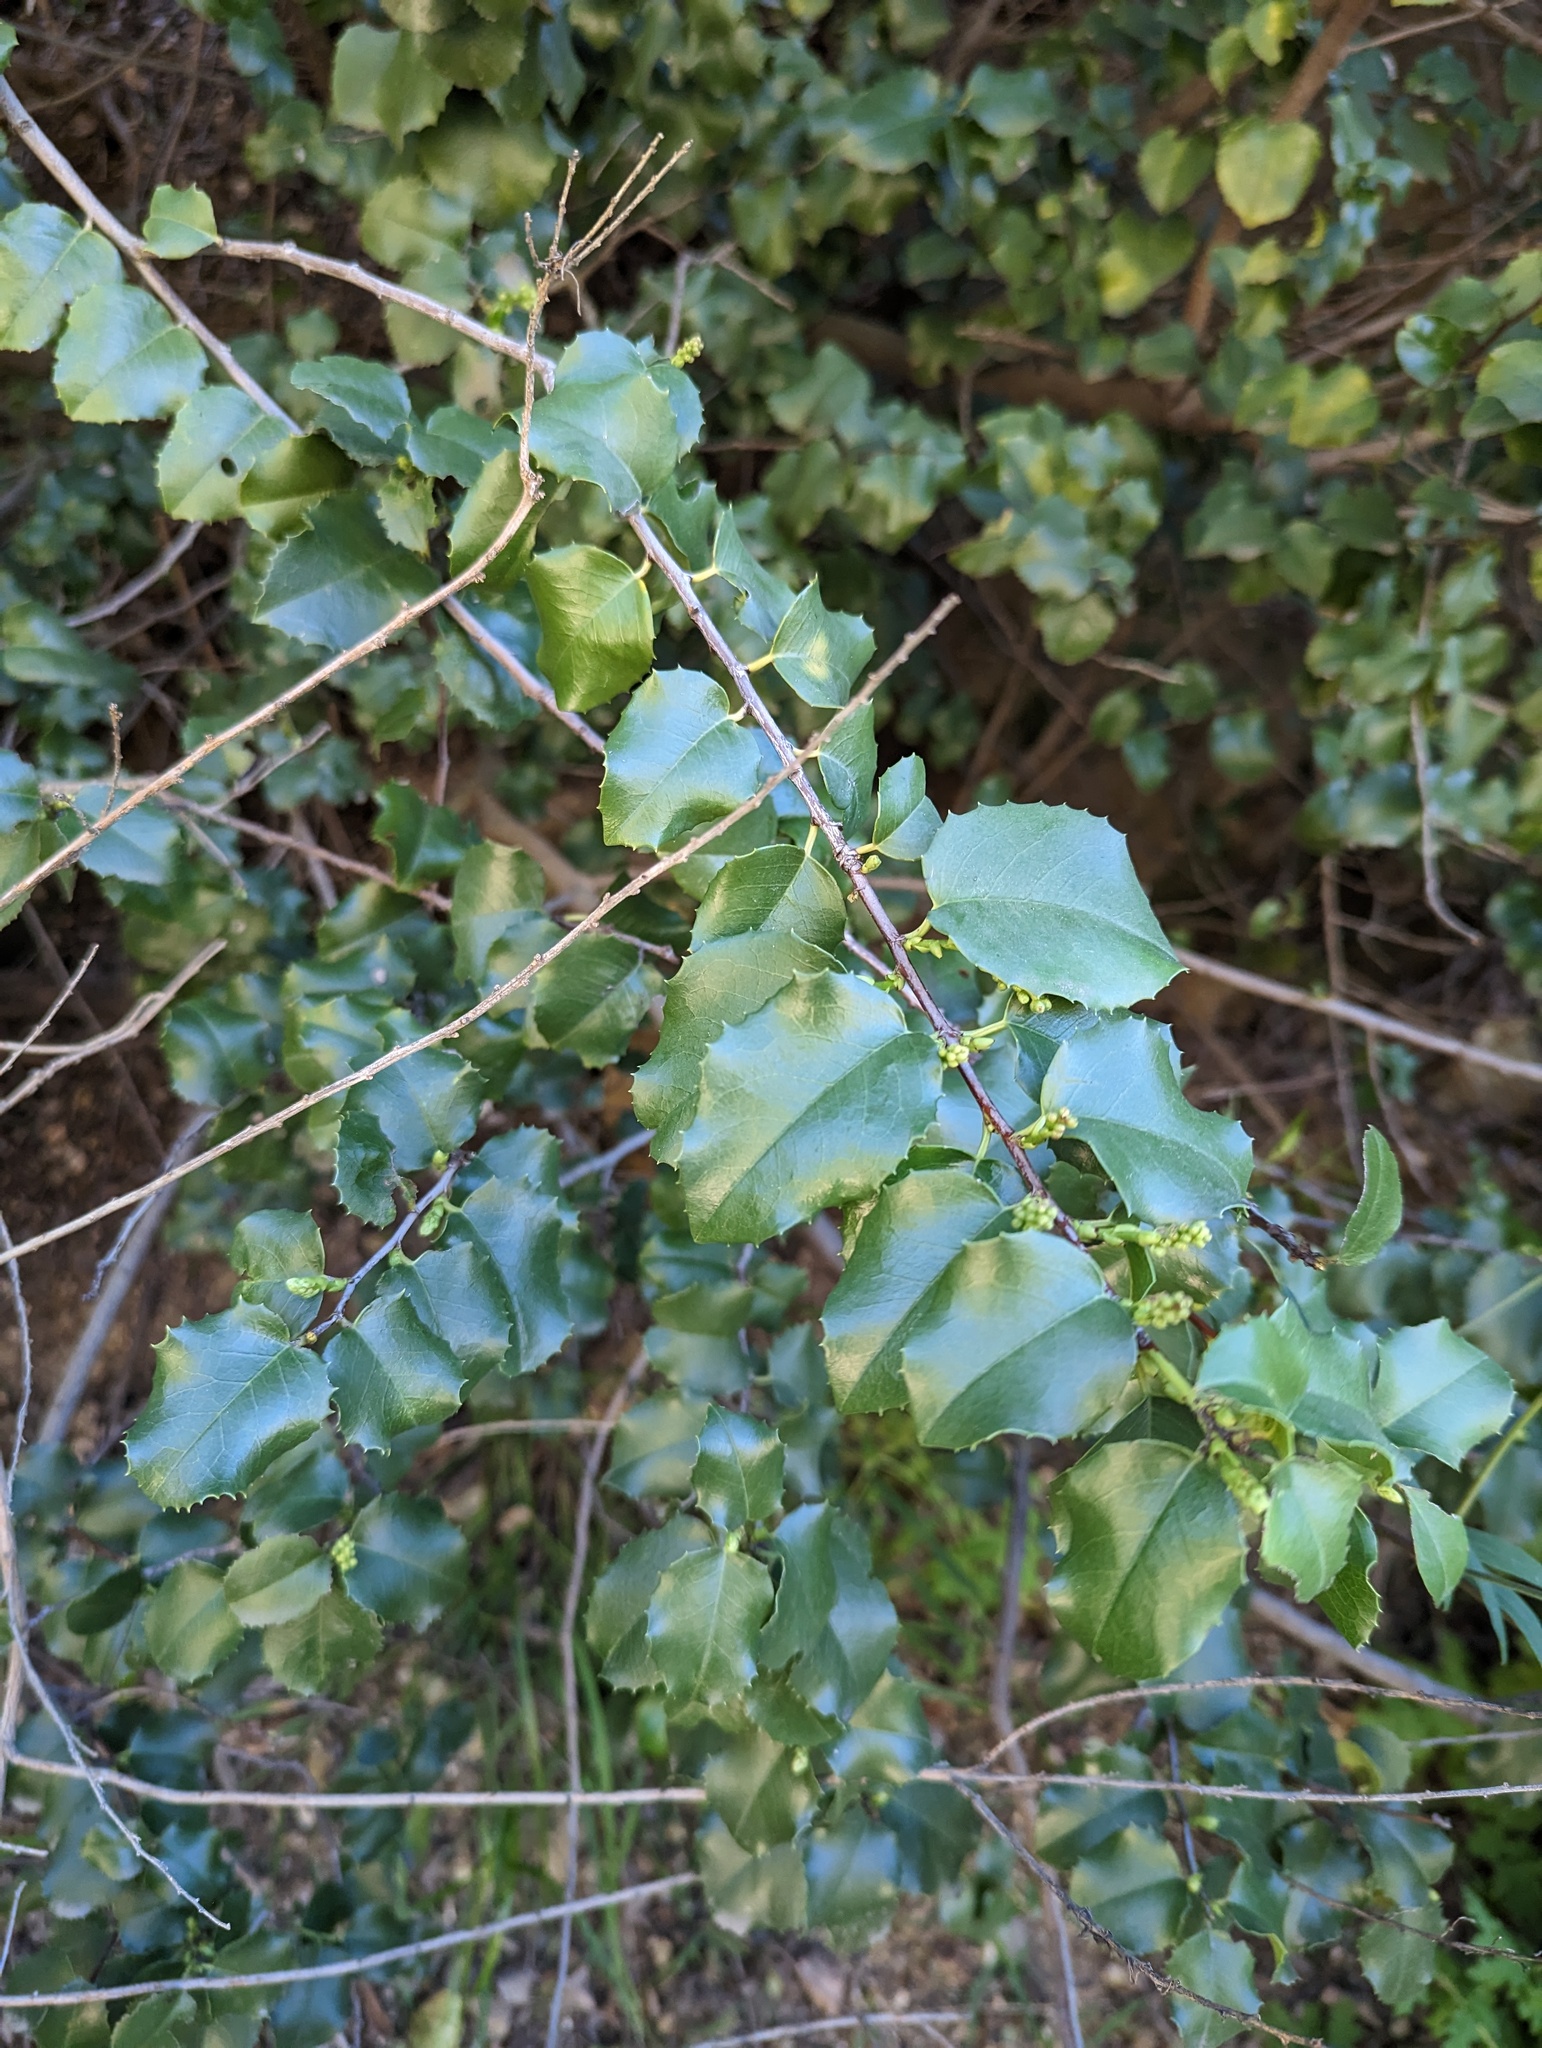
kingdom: Plantae
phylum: Tracheophyta
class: Magnoliopsida
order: Rosales
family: Rosaceae
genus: Prunus
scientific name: Prunus ilicifolia
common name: Hollyleaf cherry
